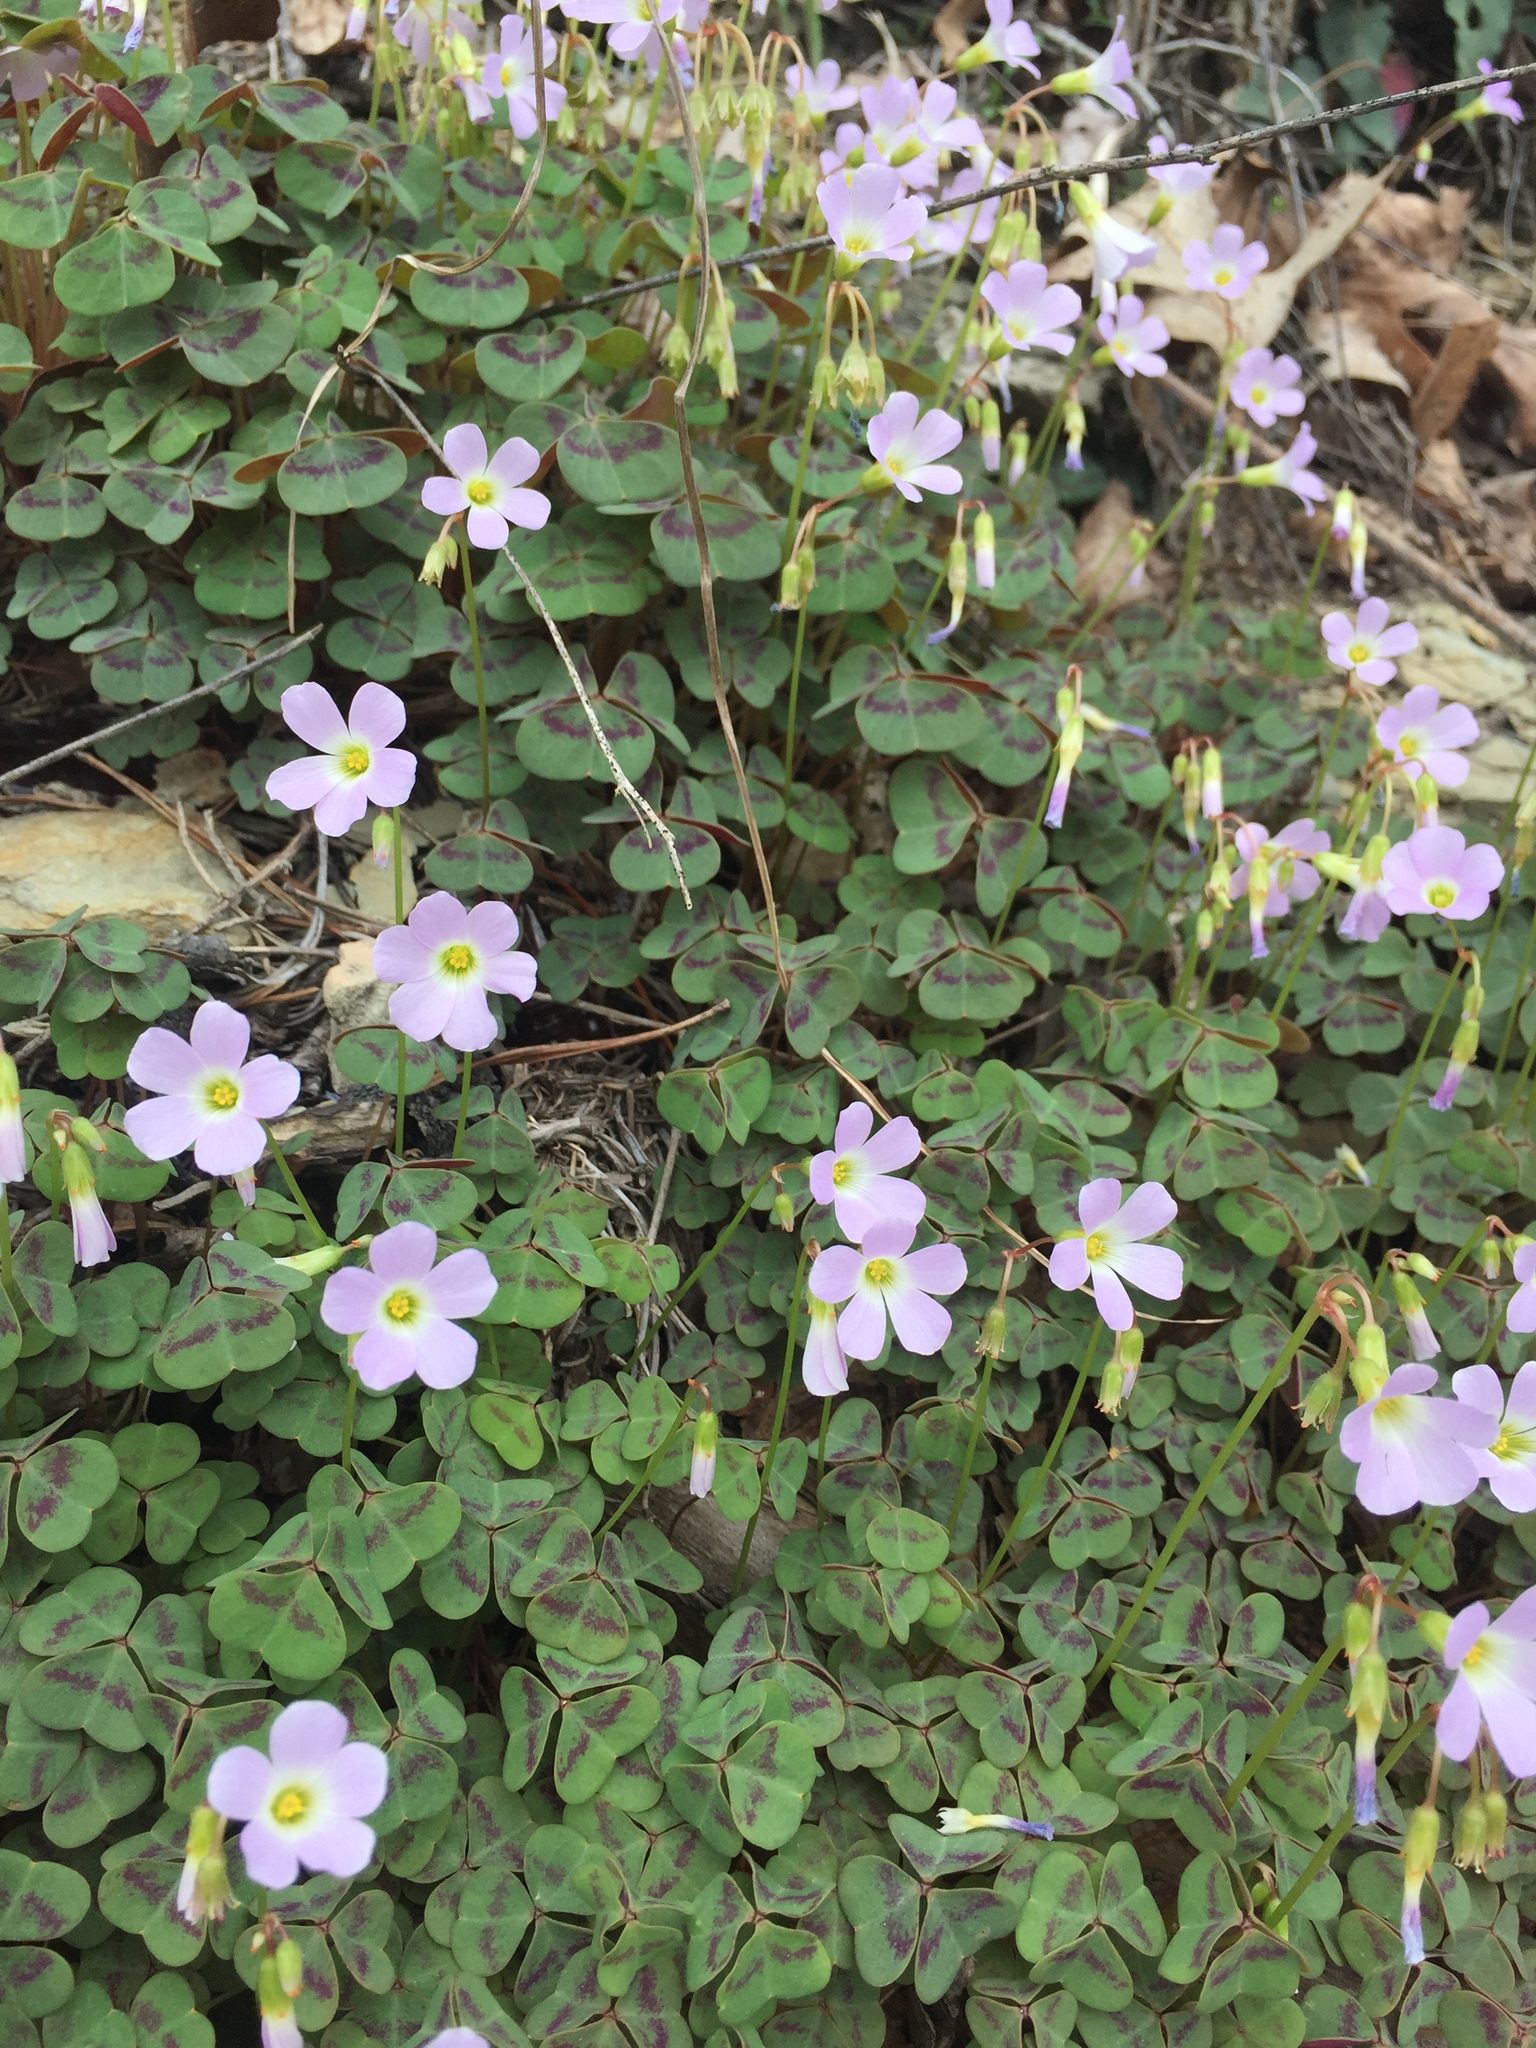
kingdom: Plantae
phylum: Tracheophyta
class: Magnoliopsida
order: Oxalidales
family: Oxalidaceae
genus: Oxalis
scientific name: Oxalis violacea
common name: Violet wood-sorrel
